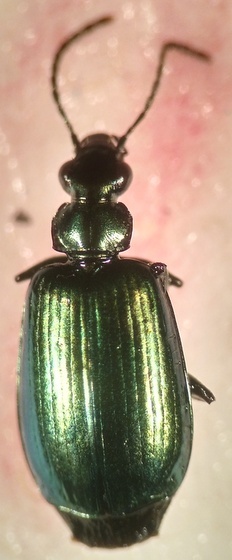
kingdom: Animalia
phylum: Arthropoda
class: Insecta
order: Coleoptera
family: Carabidae
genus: Lebia
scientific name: Lebia viridis
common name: Flower lebia beetle
